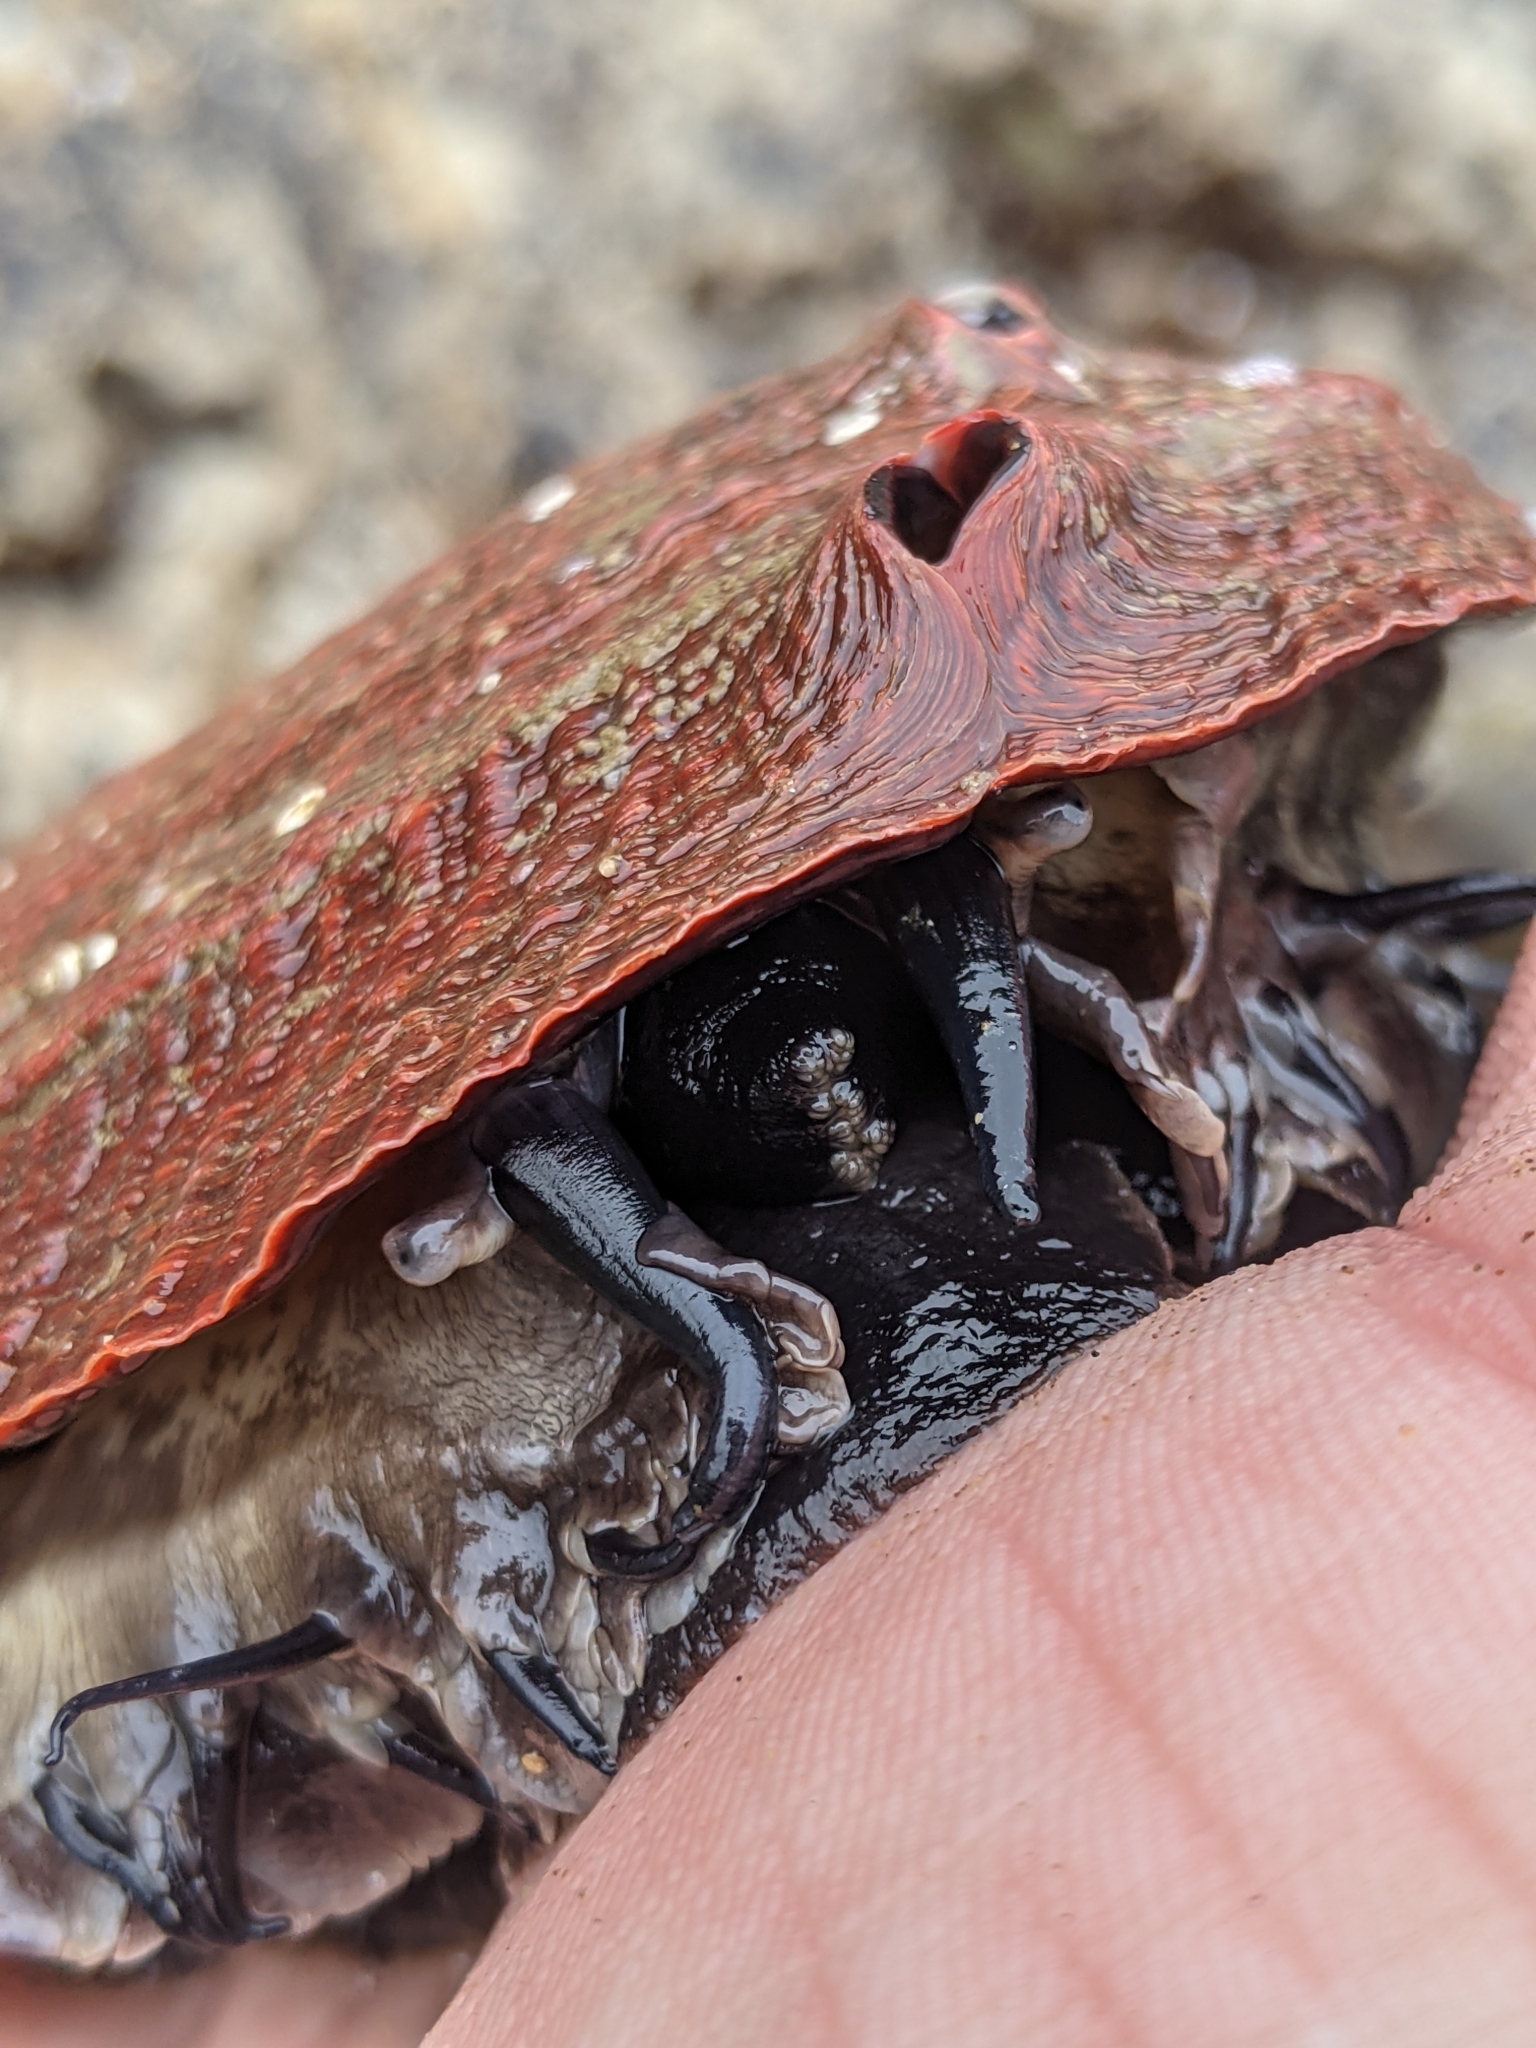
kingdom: Animalia
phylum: Mollusca
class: Gastropoda
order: Lepetellida
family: Haliotidae
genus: Haliotis
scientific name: Haliotis rufescens
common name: Red abalone
